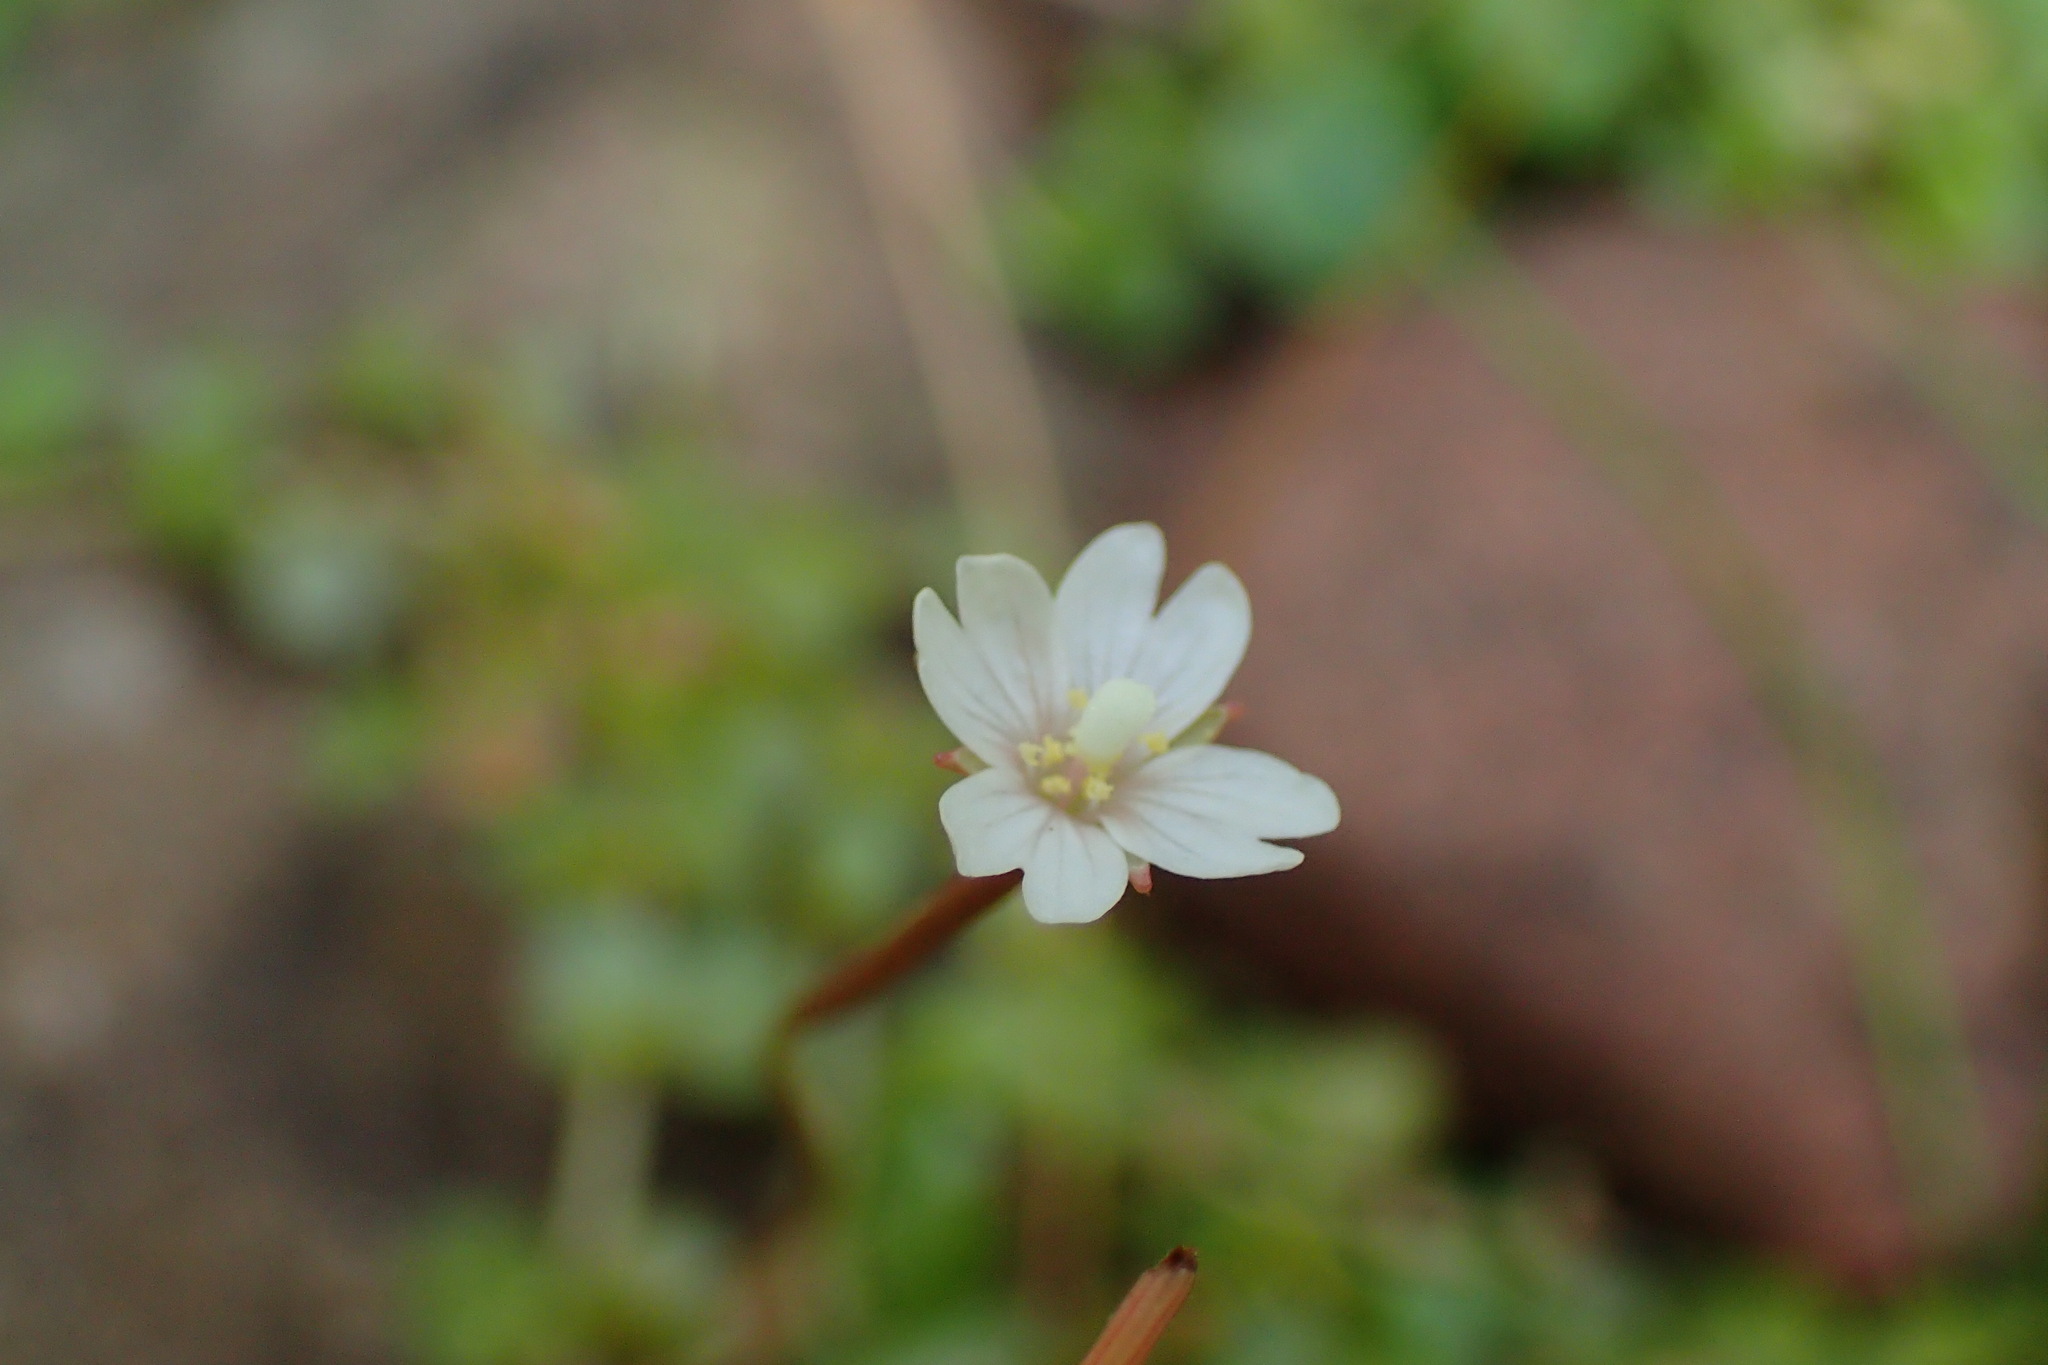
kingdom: Plantae
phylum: Tracheophyta
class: Magnoliopsida
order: Myrtales
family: Onagraceae
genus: Epilobium
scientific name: Epilobium brunnescens
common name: New zealand willowherb
